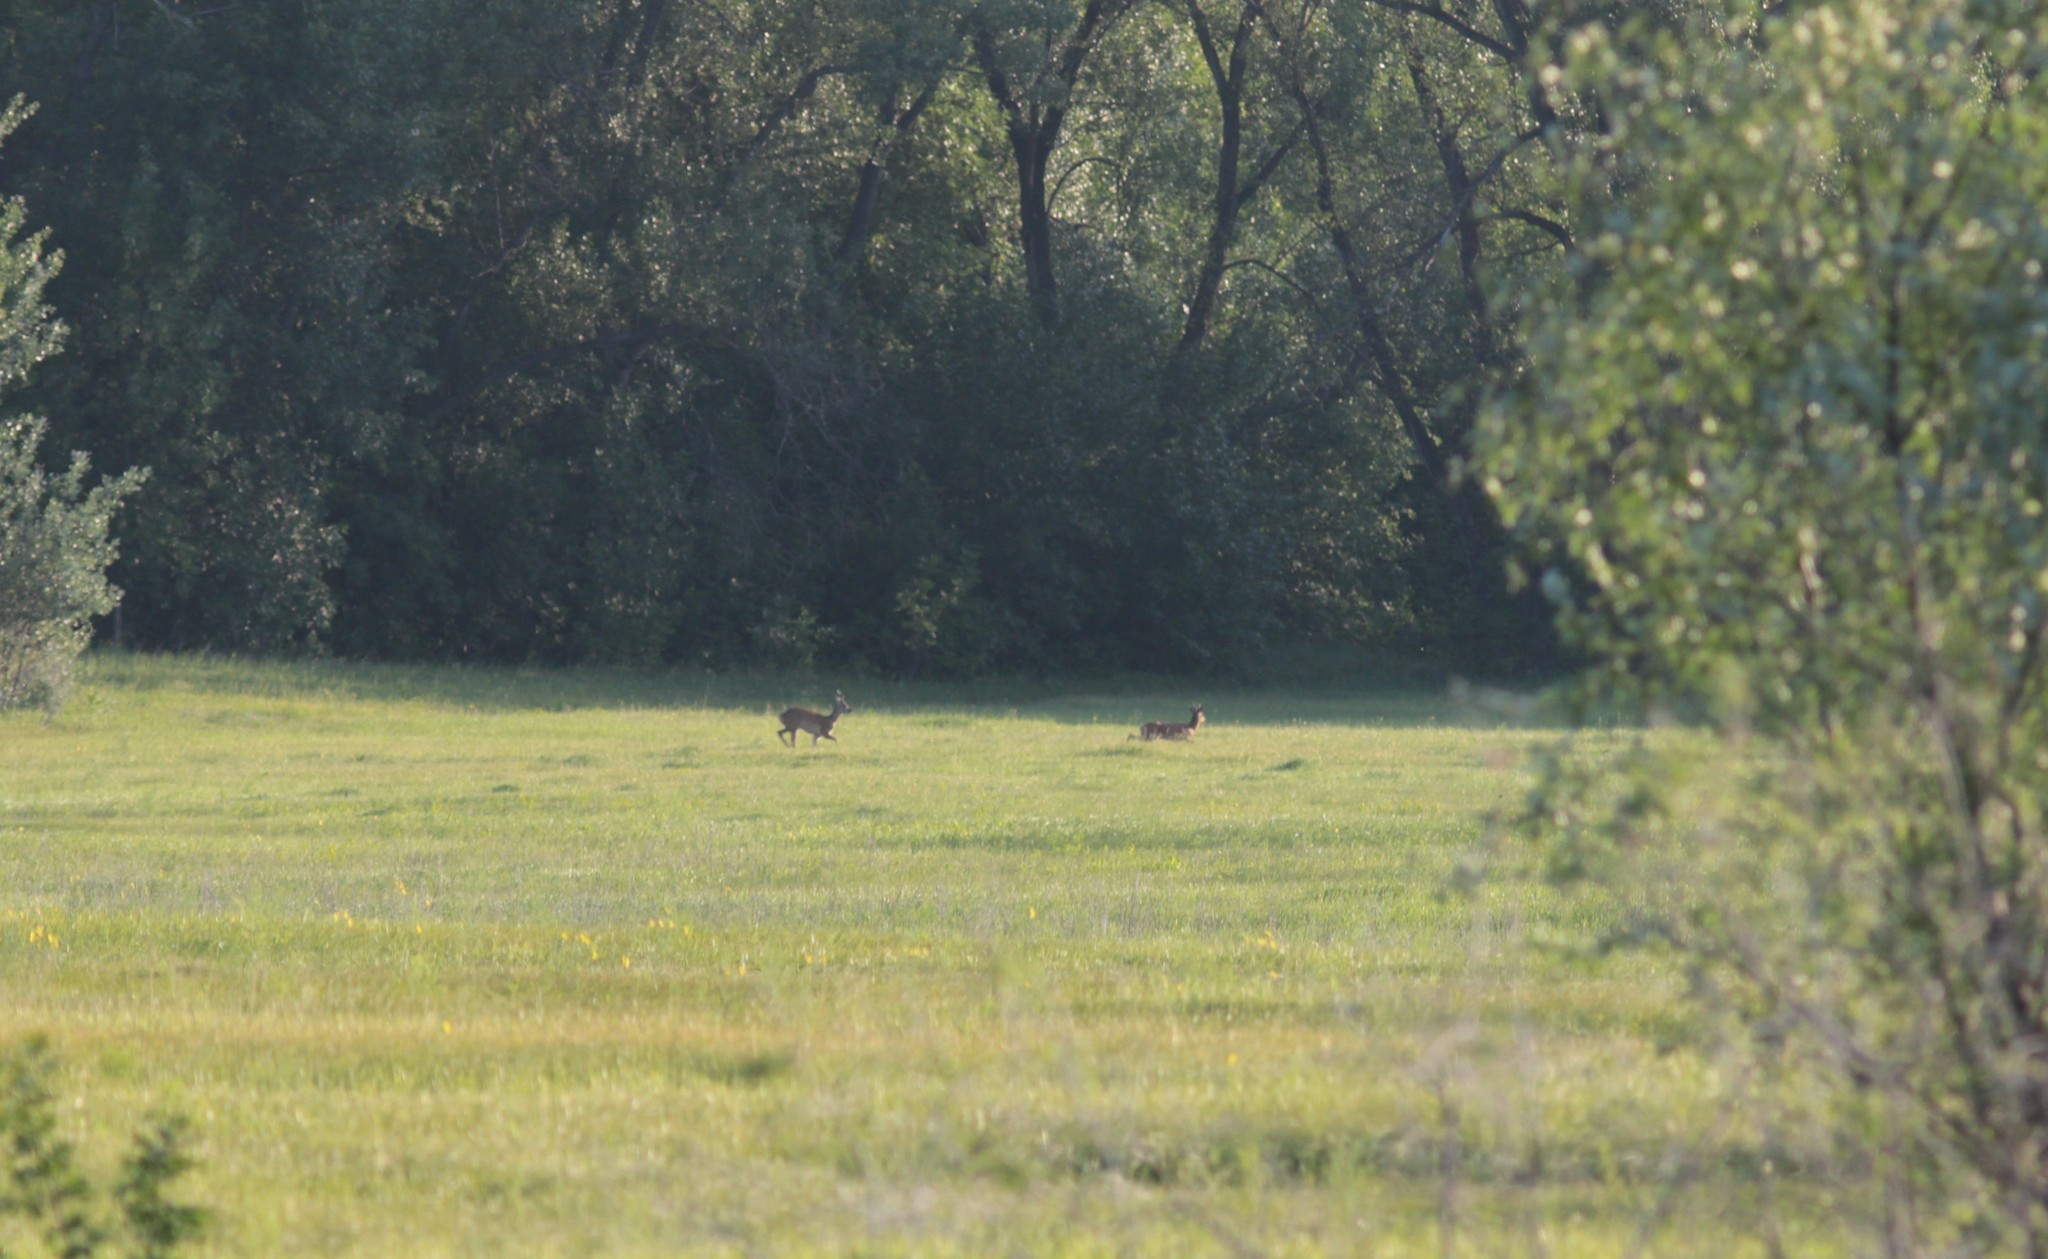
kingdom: Animalia
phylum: Chordata
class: Mammalia
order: Artiodactyla
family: Cervidae
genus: Capreolus
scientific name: Capreolus pygargus
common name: Siberian roe
